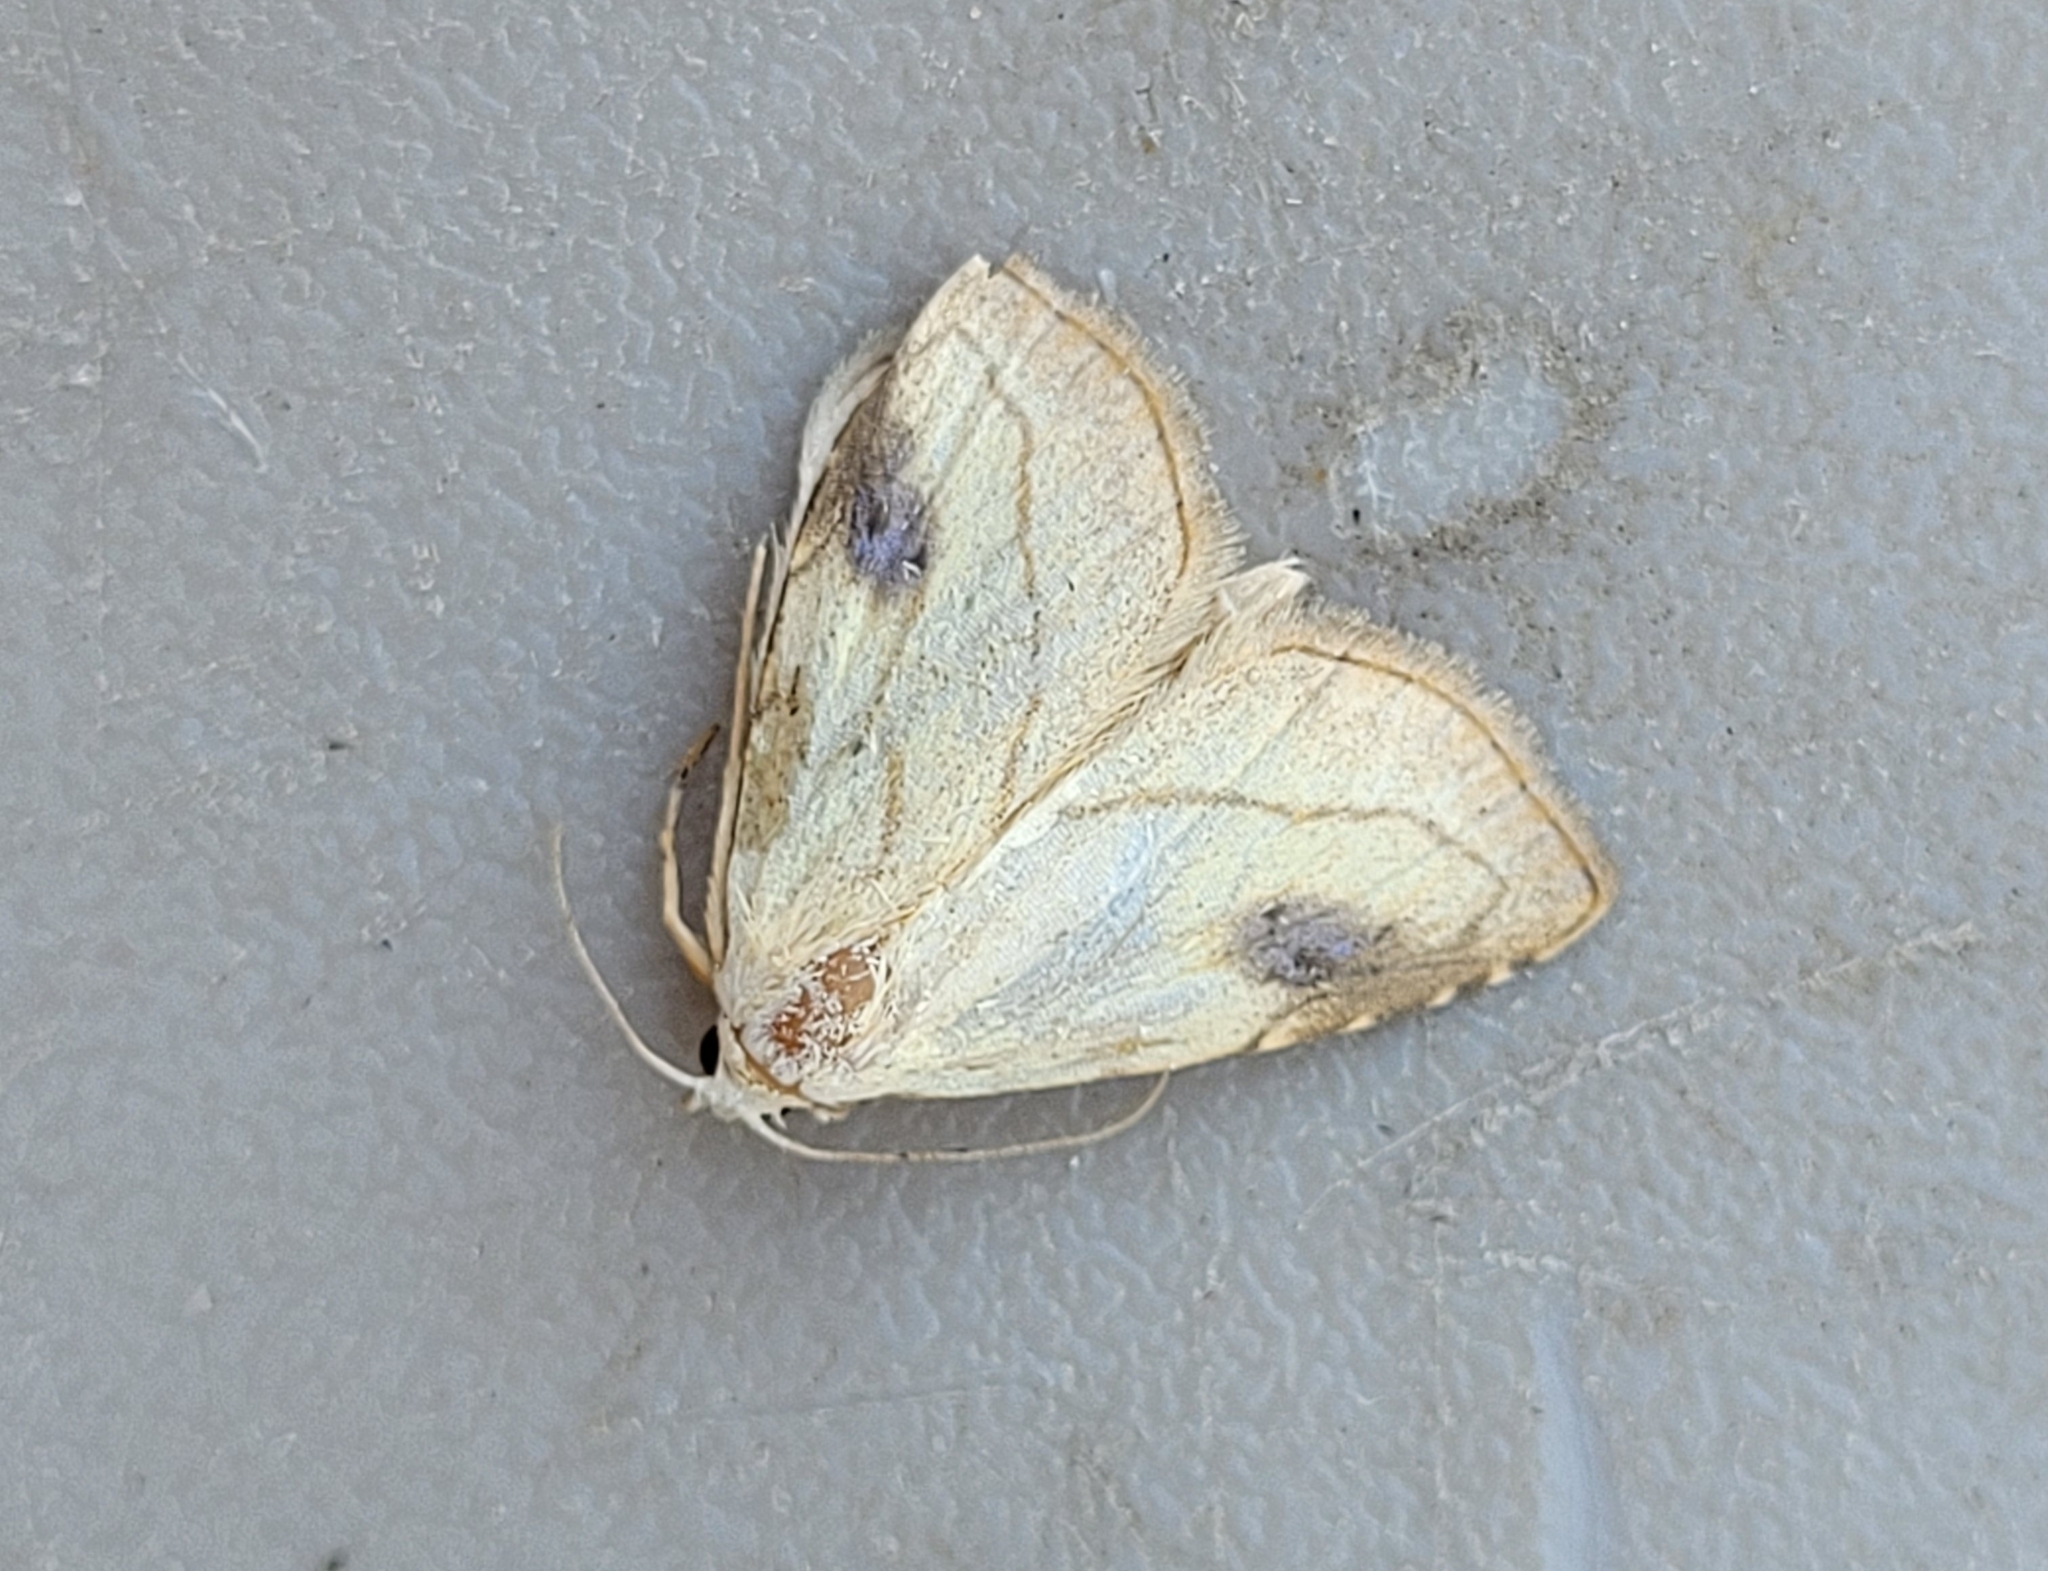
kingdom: Animalia
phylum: Arthropoda
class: Insecta
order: Lepidoptera
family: Erebidae
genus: Rivula
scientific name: Rivula propinqualis
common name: Spotted grass moth
